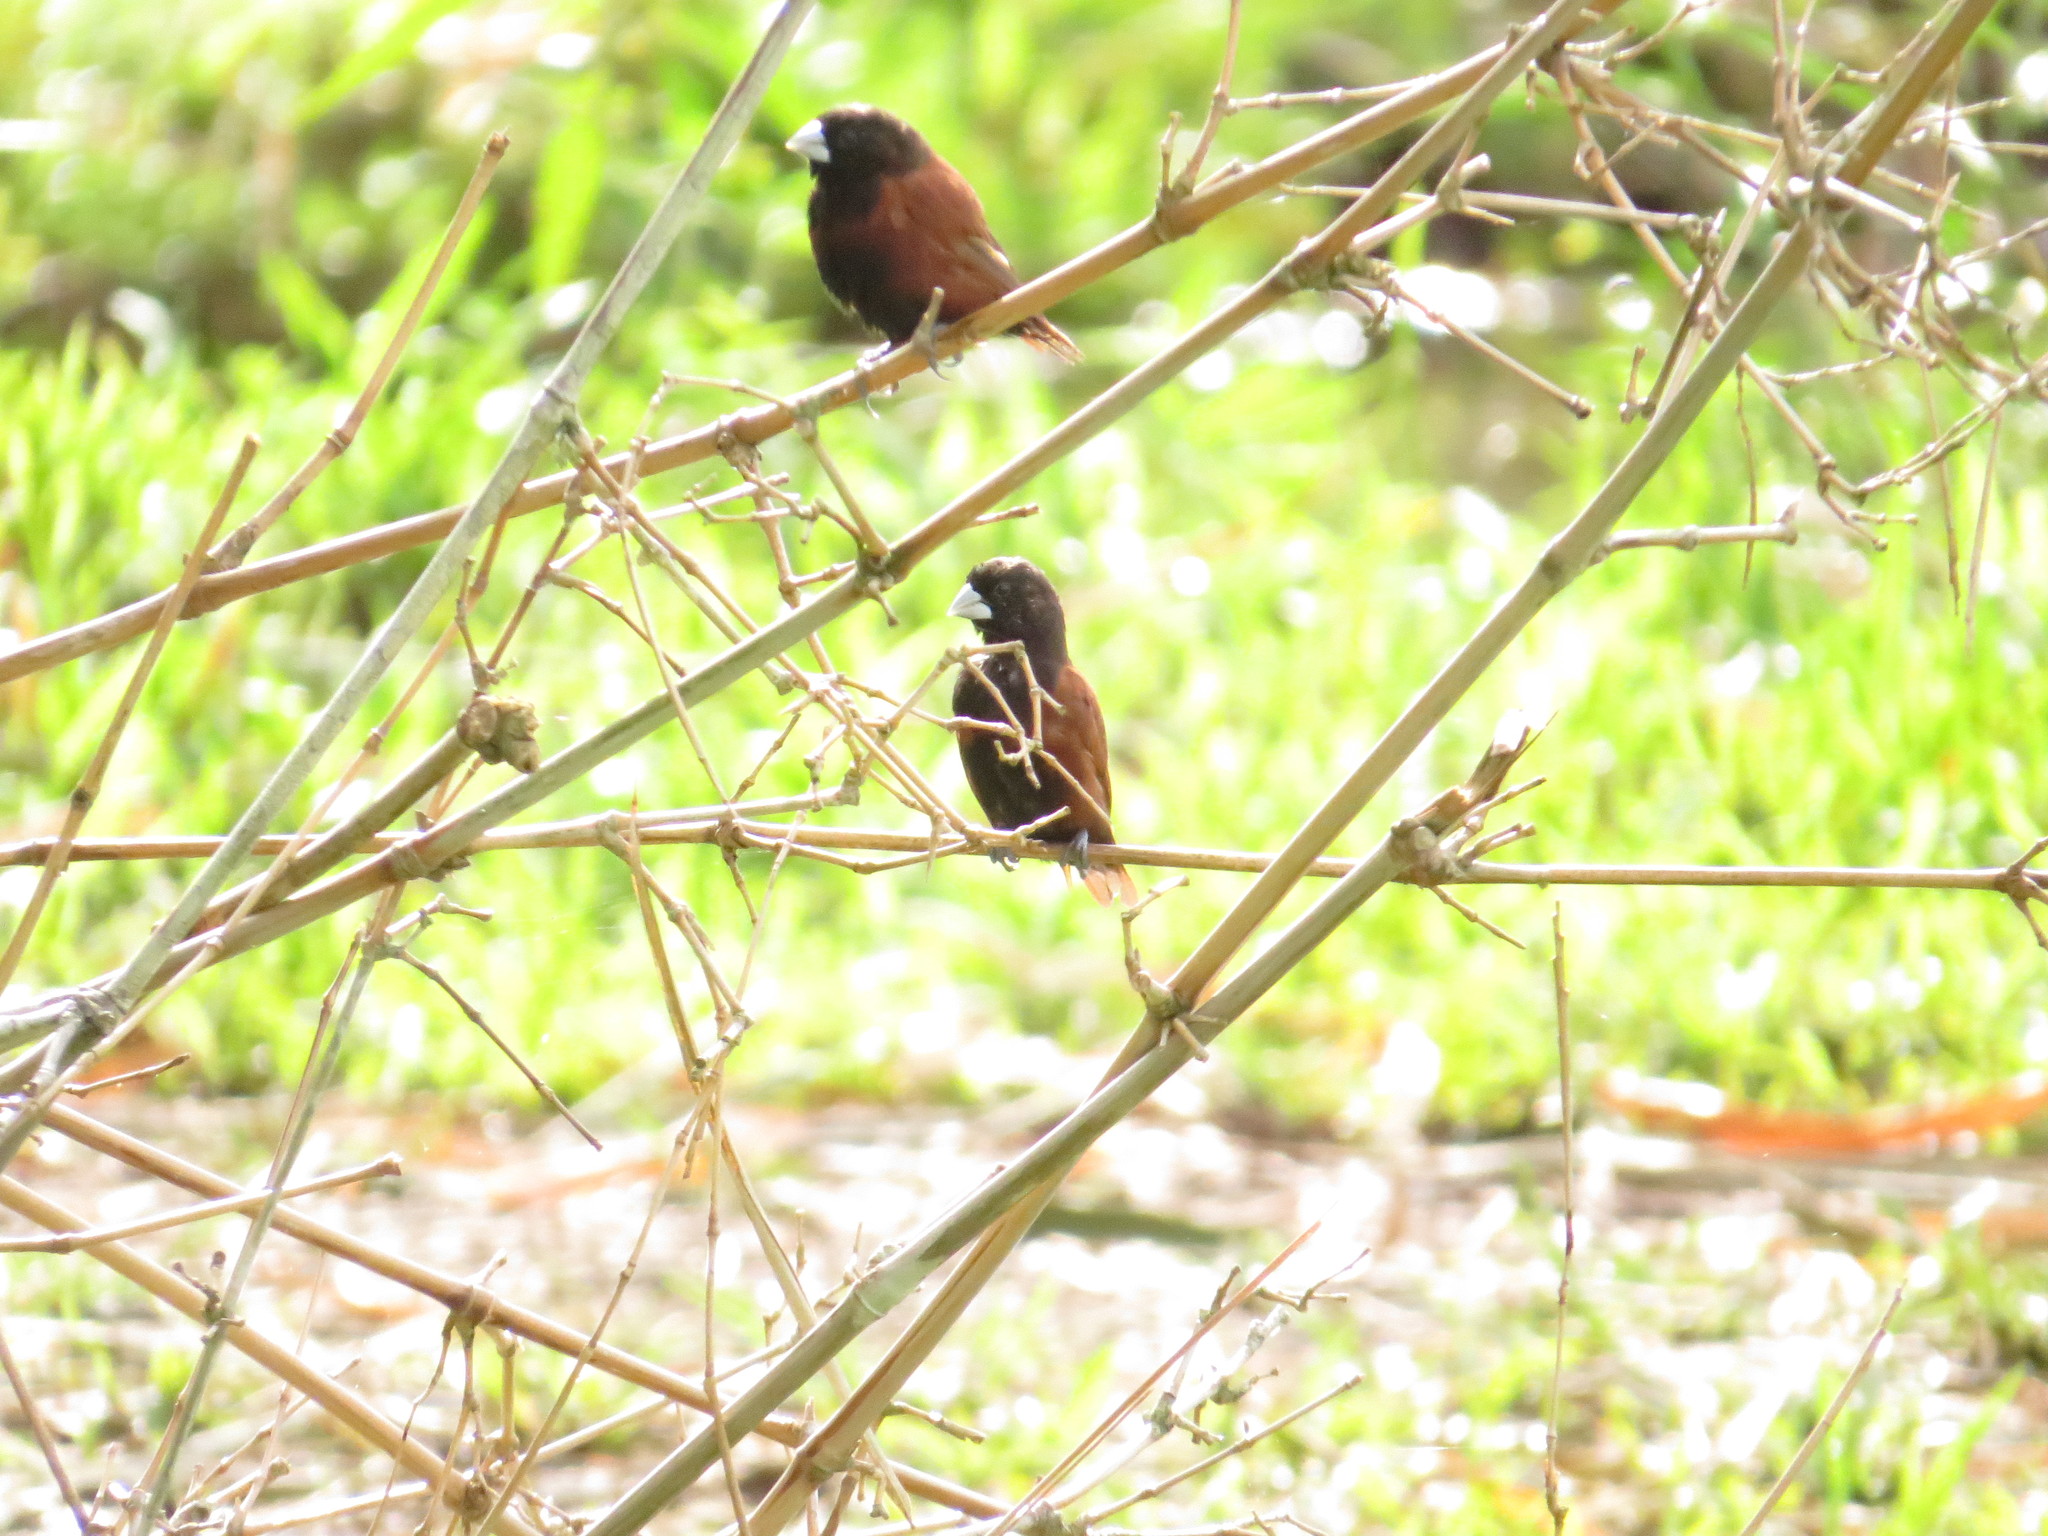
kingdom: Animalia
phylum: Chordata
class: Aves
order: Passeriformes
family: Estrildidae
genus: Lonchura
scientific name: Lonchura atricapilla
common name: Chestnut munia
